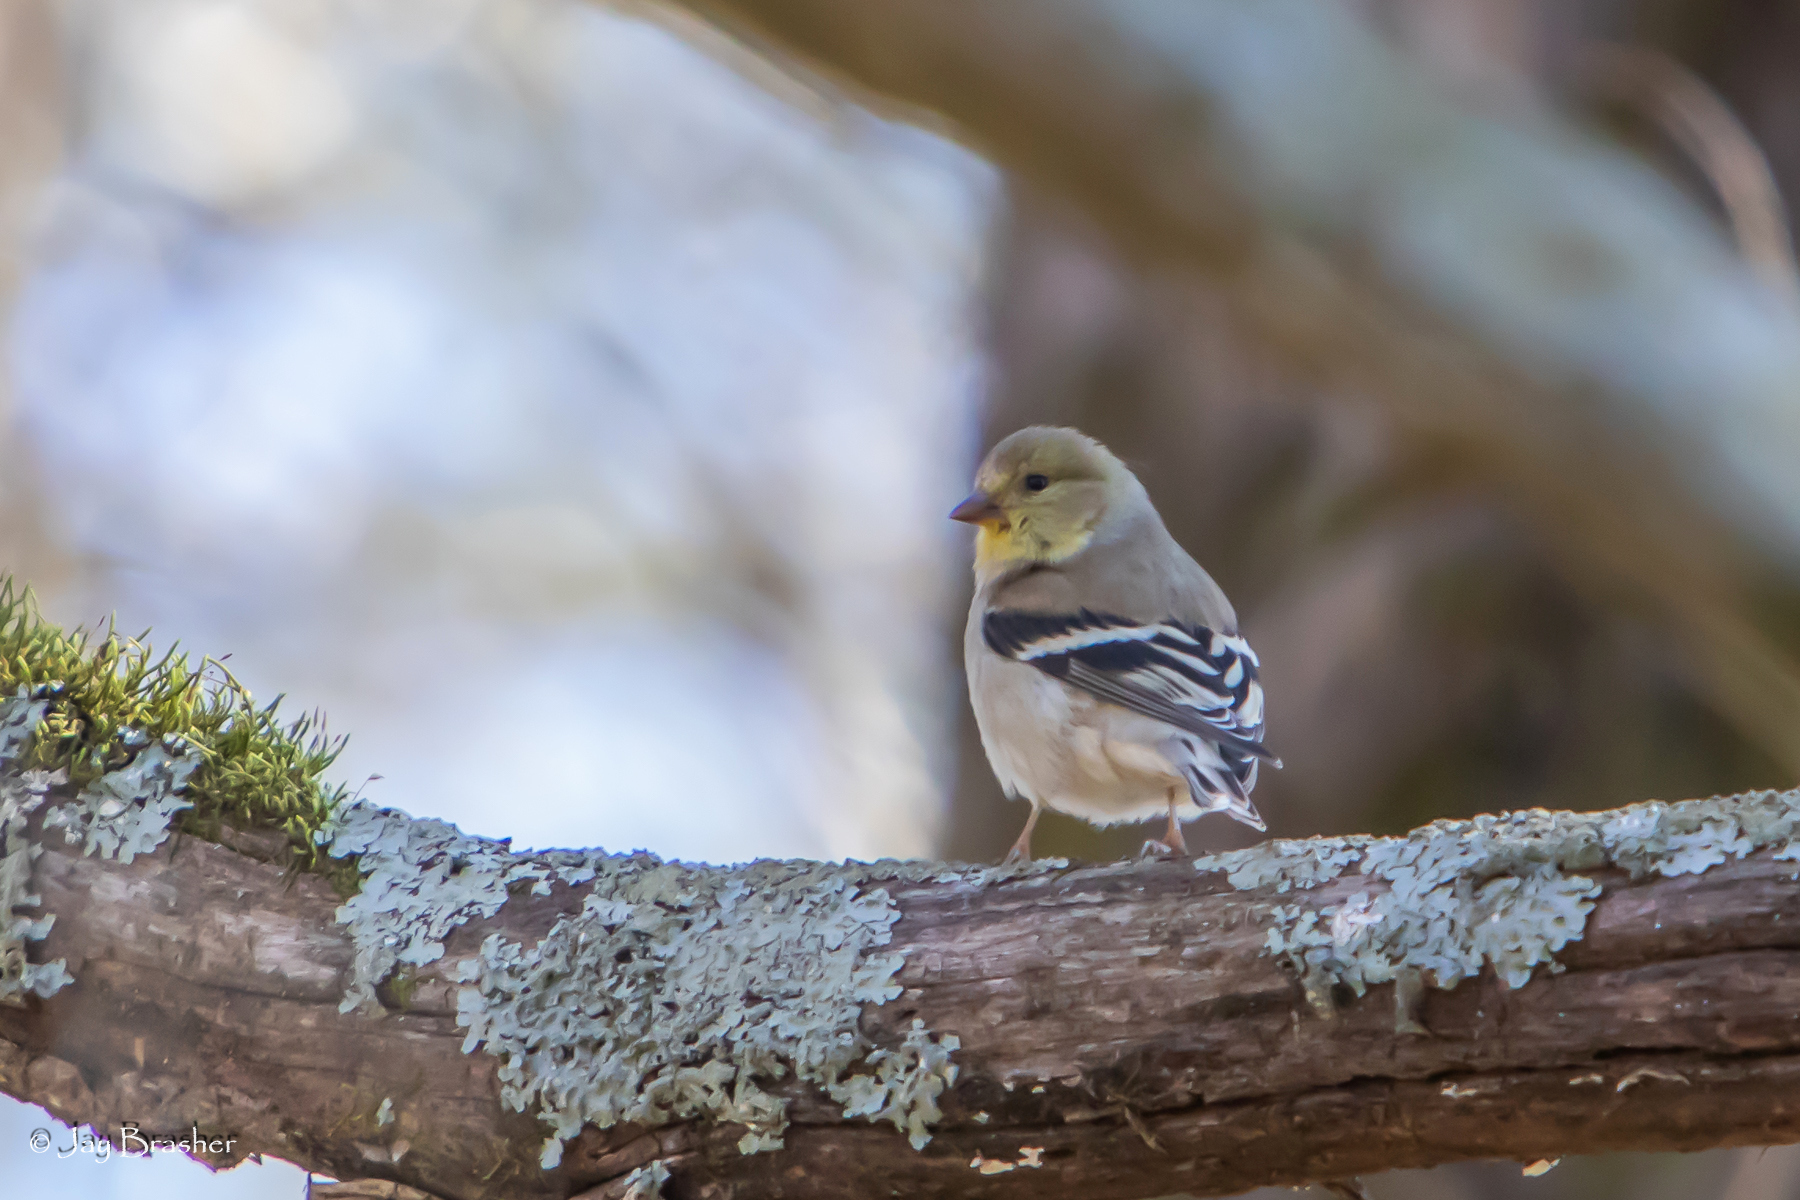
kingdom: Animalia
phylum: Chordata
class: Aves
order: Passeriformes
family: Fringillidae
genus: Spinus
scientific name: Spinus tristis
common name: American goldfinch
